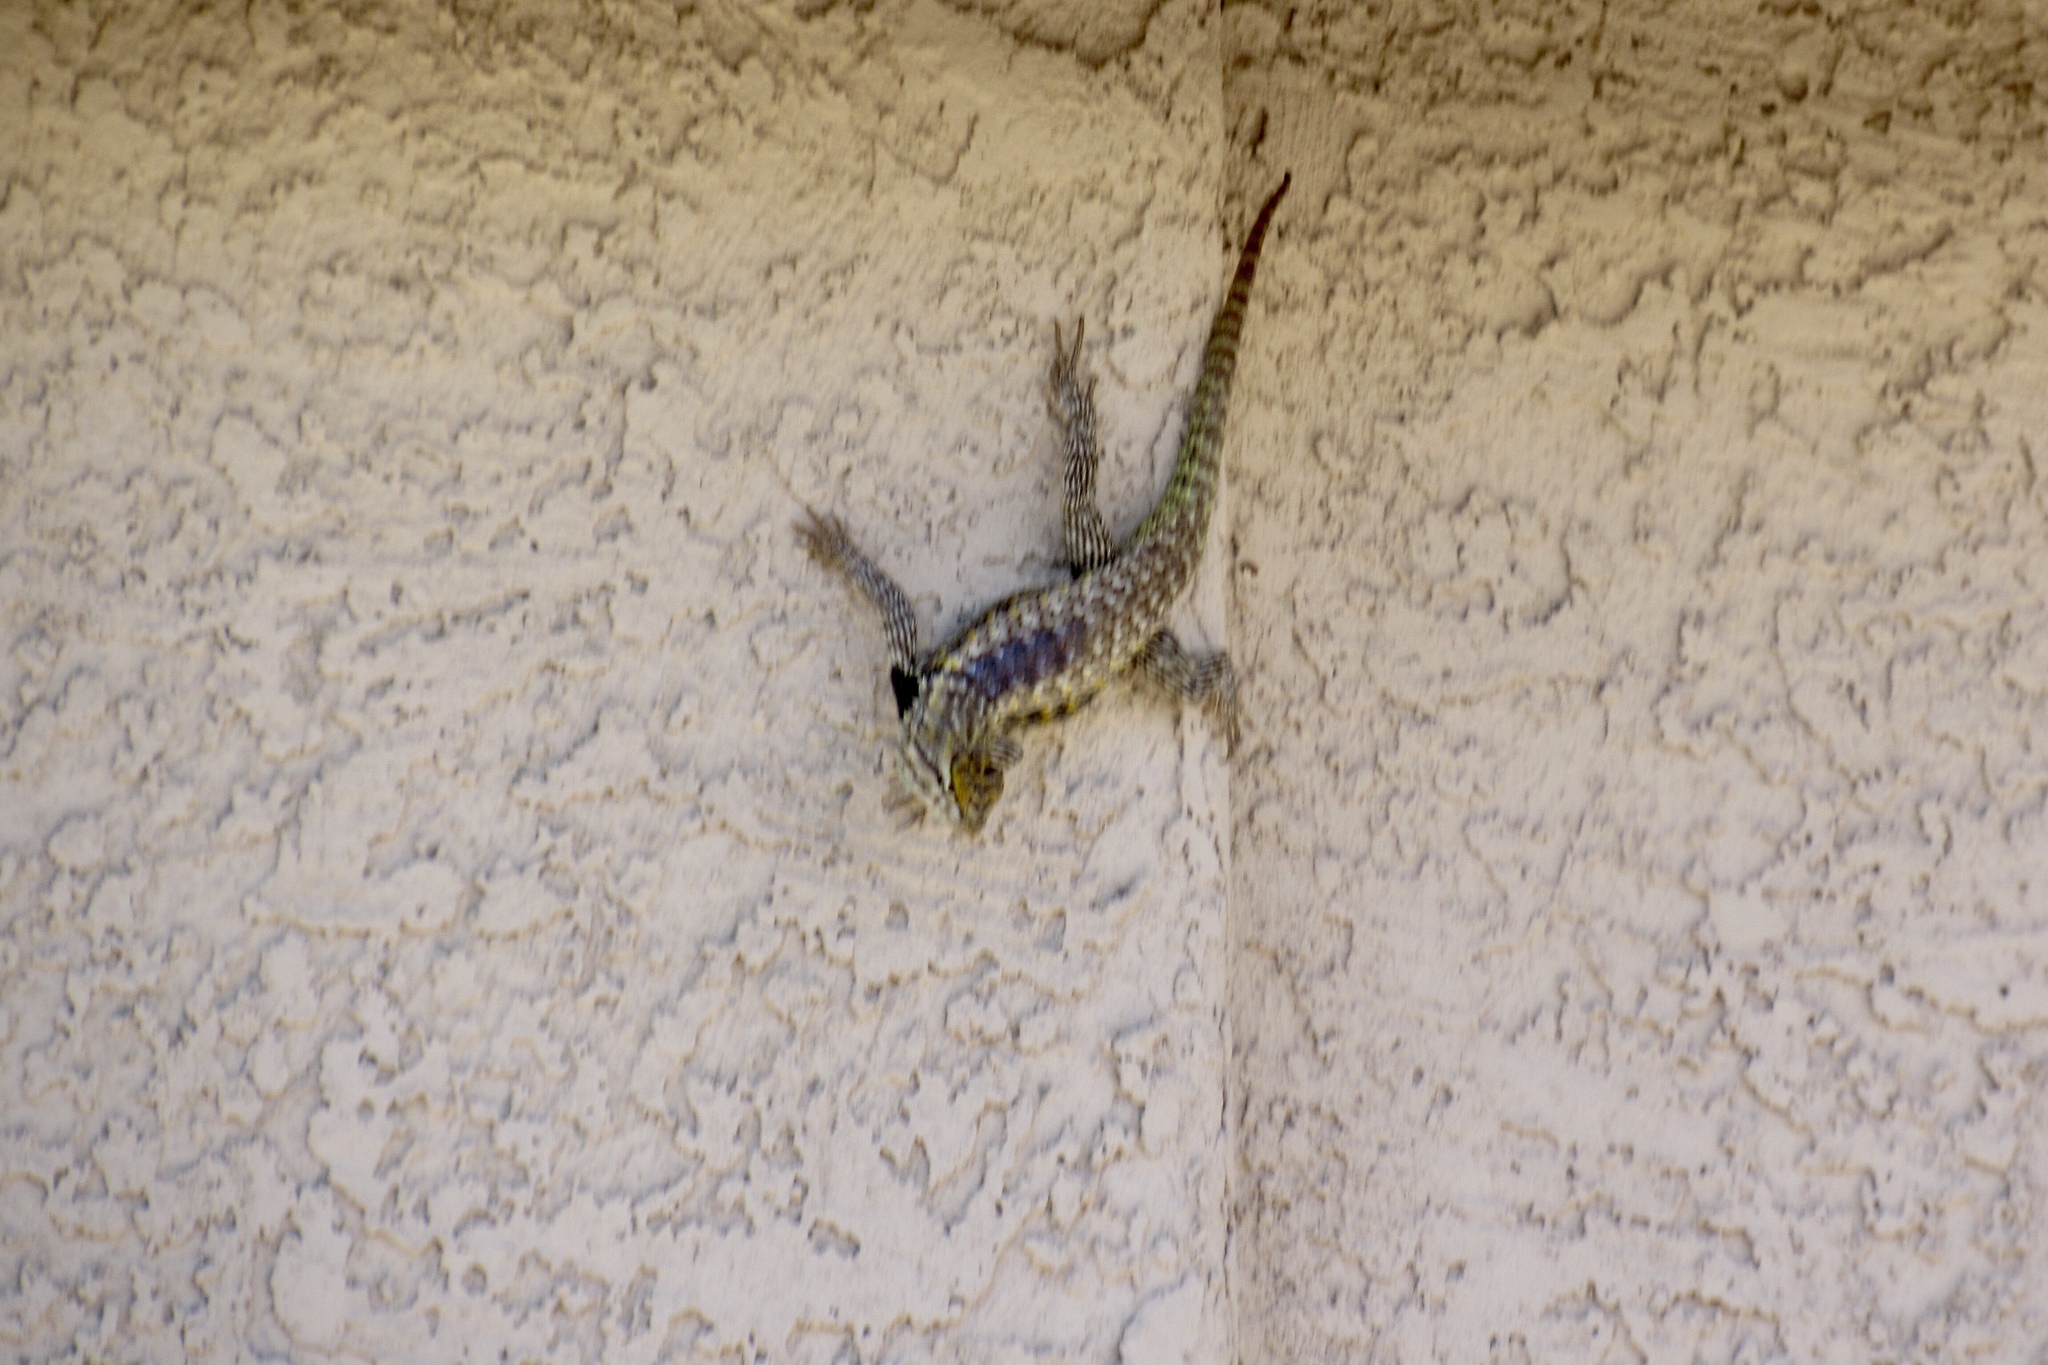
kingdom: Animalia
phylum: Chordata
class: Squamata
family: Phrynosomatidae
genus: Sceloporus
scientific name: Sceloporus magister
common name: Desert spiny lizard
